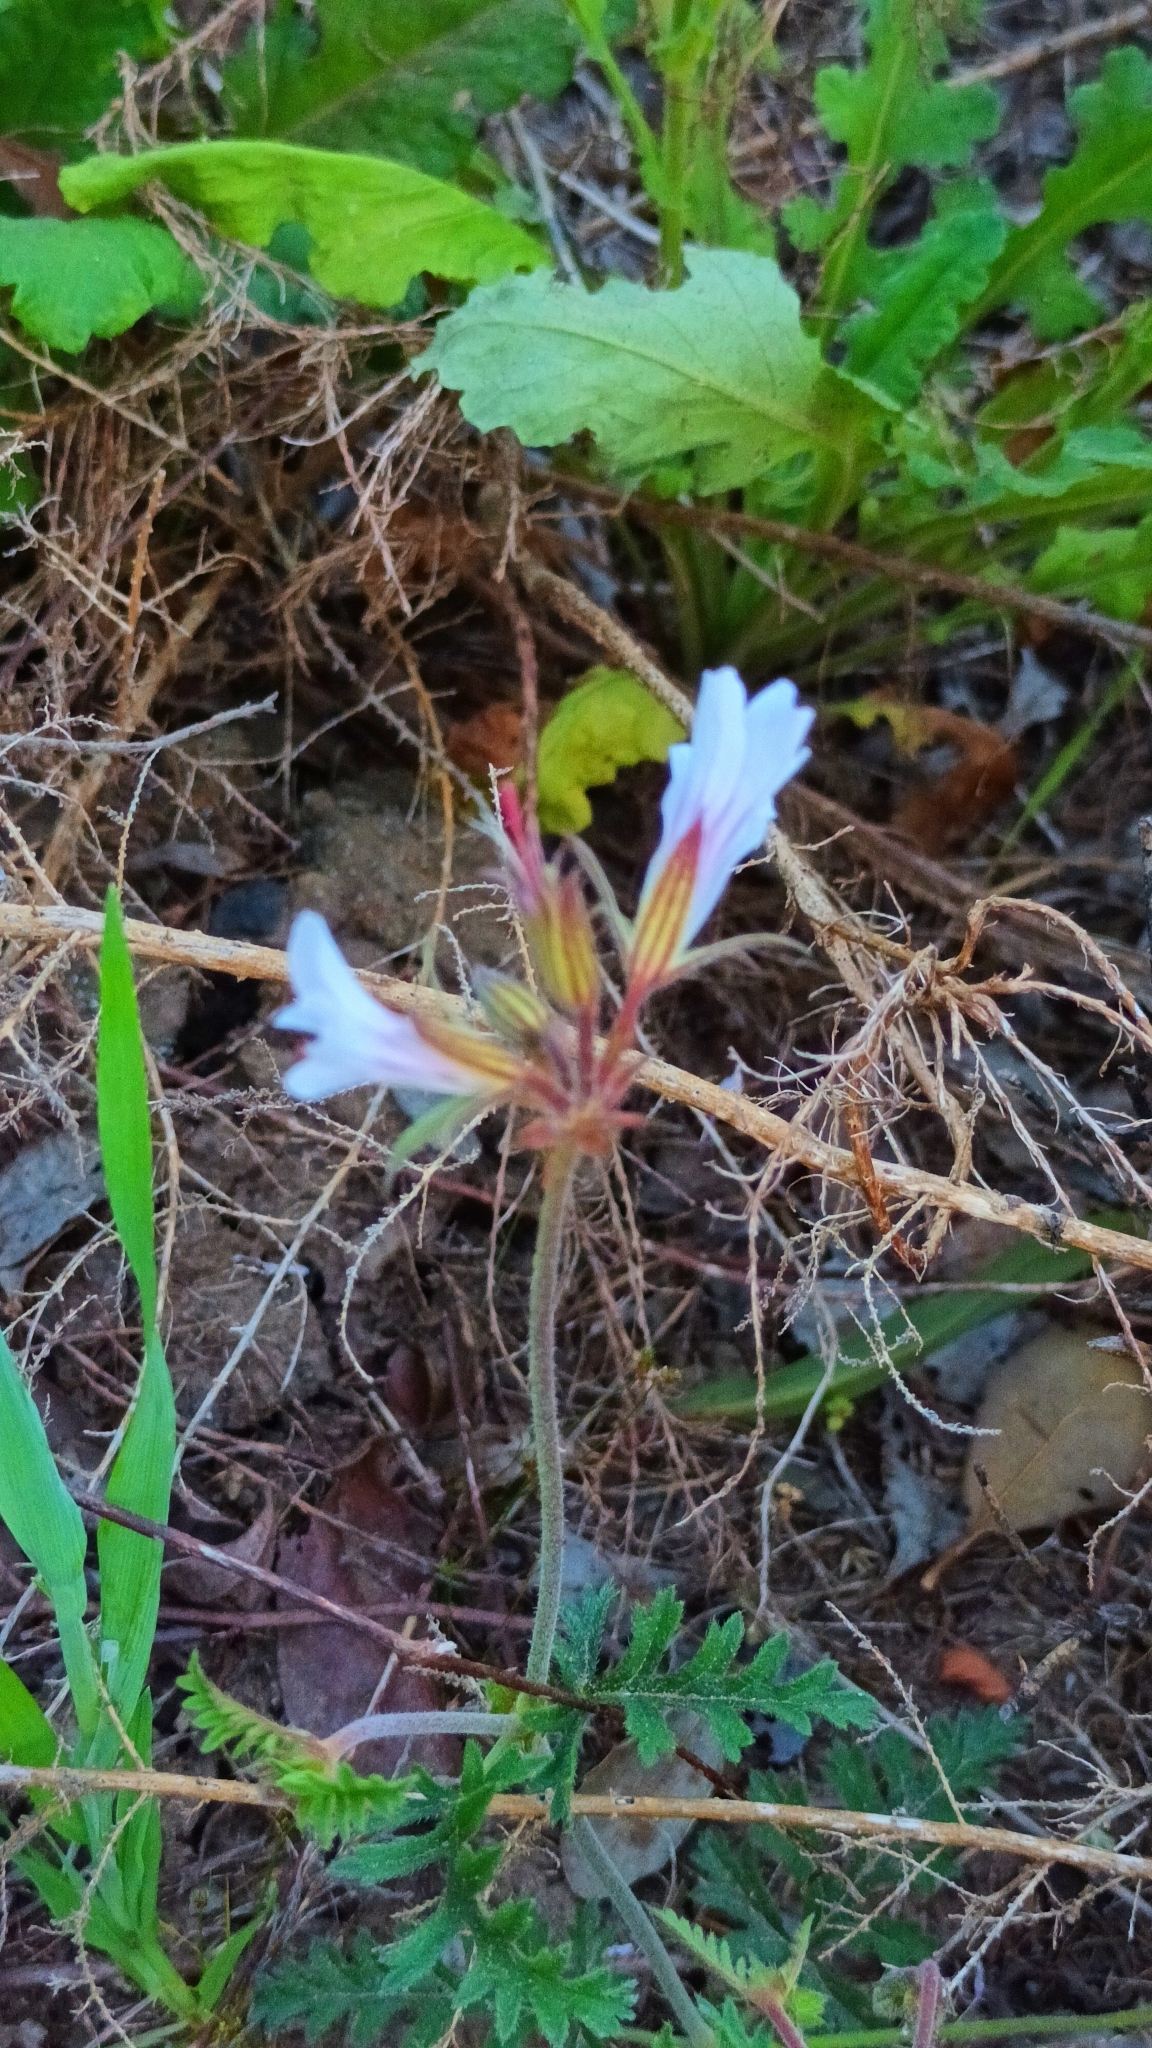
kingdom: Plantae
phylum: Tracheophyta
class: Magnoliopsida
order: Geraniales
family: Geraniaceae
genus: Pelargonium
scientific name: Pelargonium myrrhifolium
